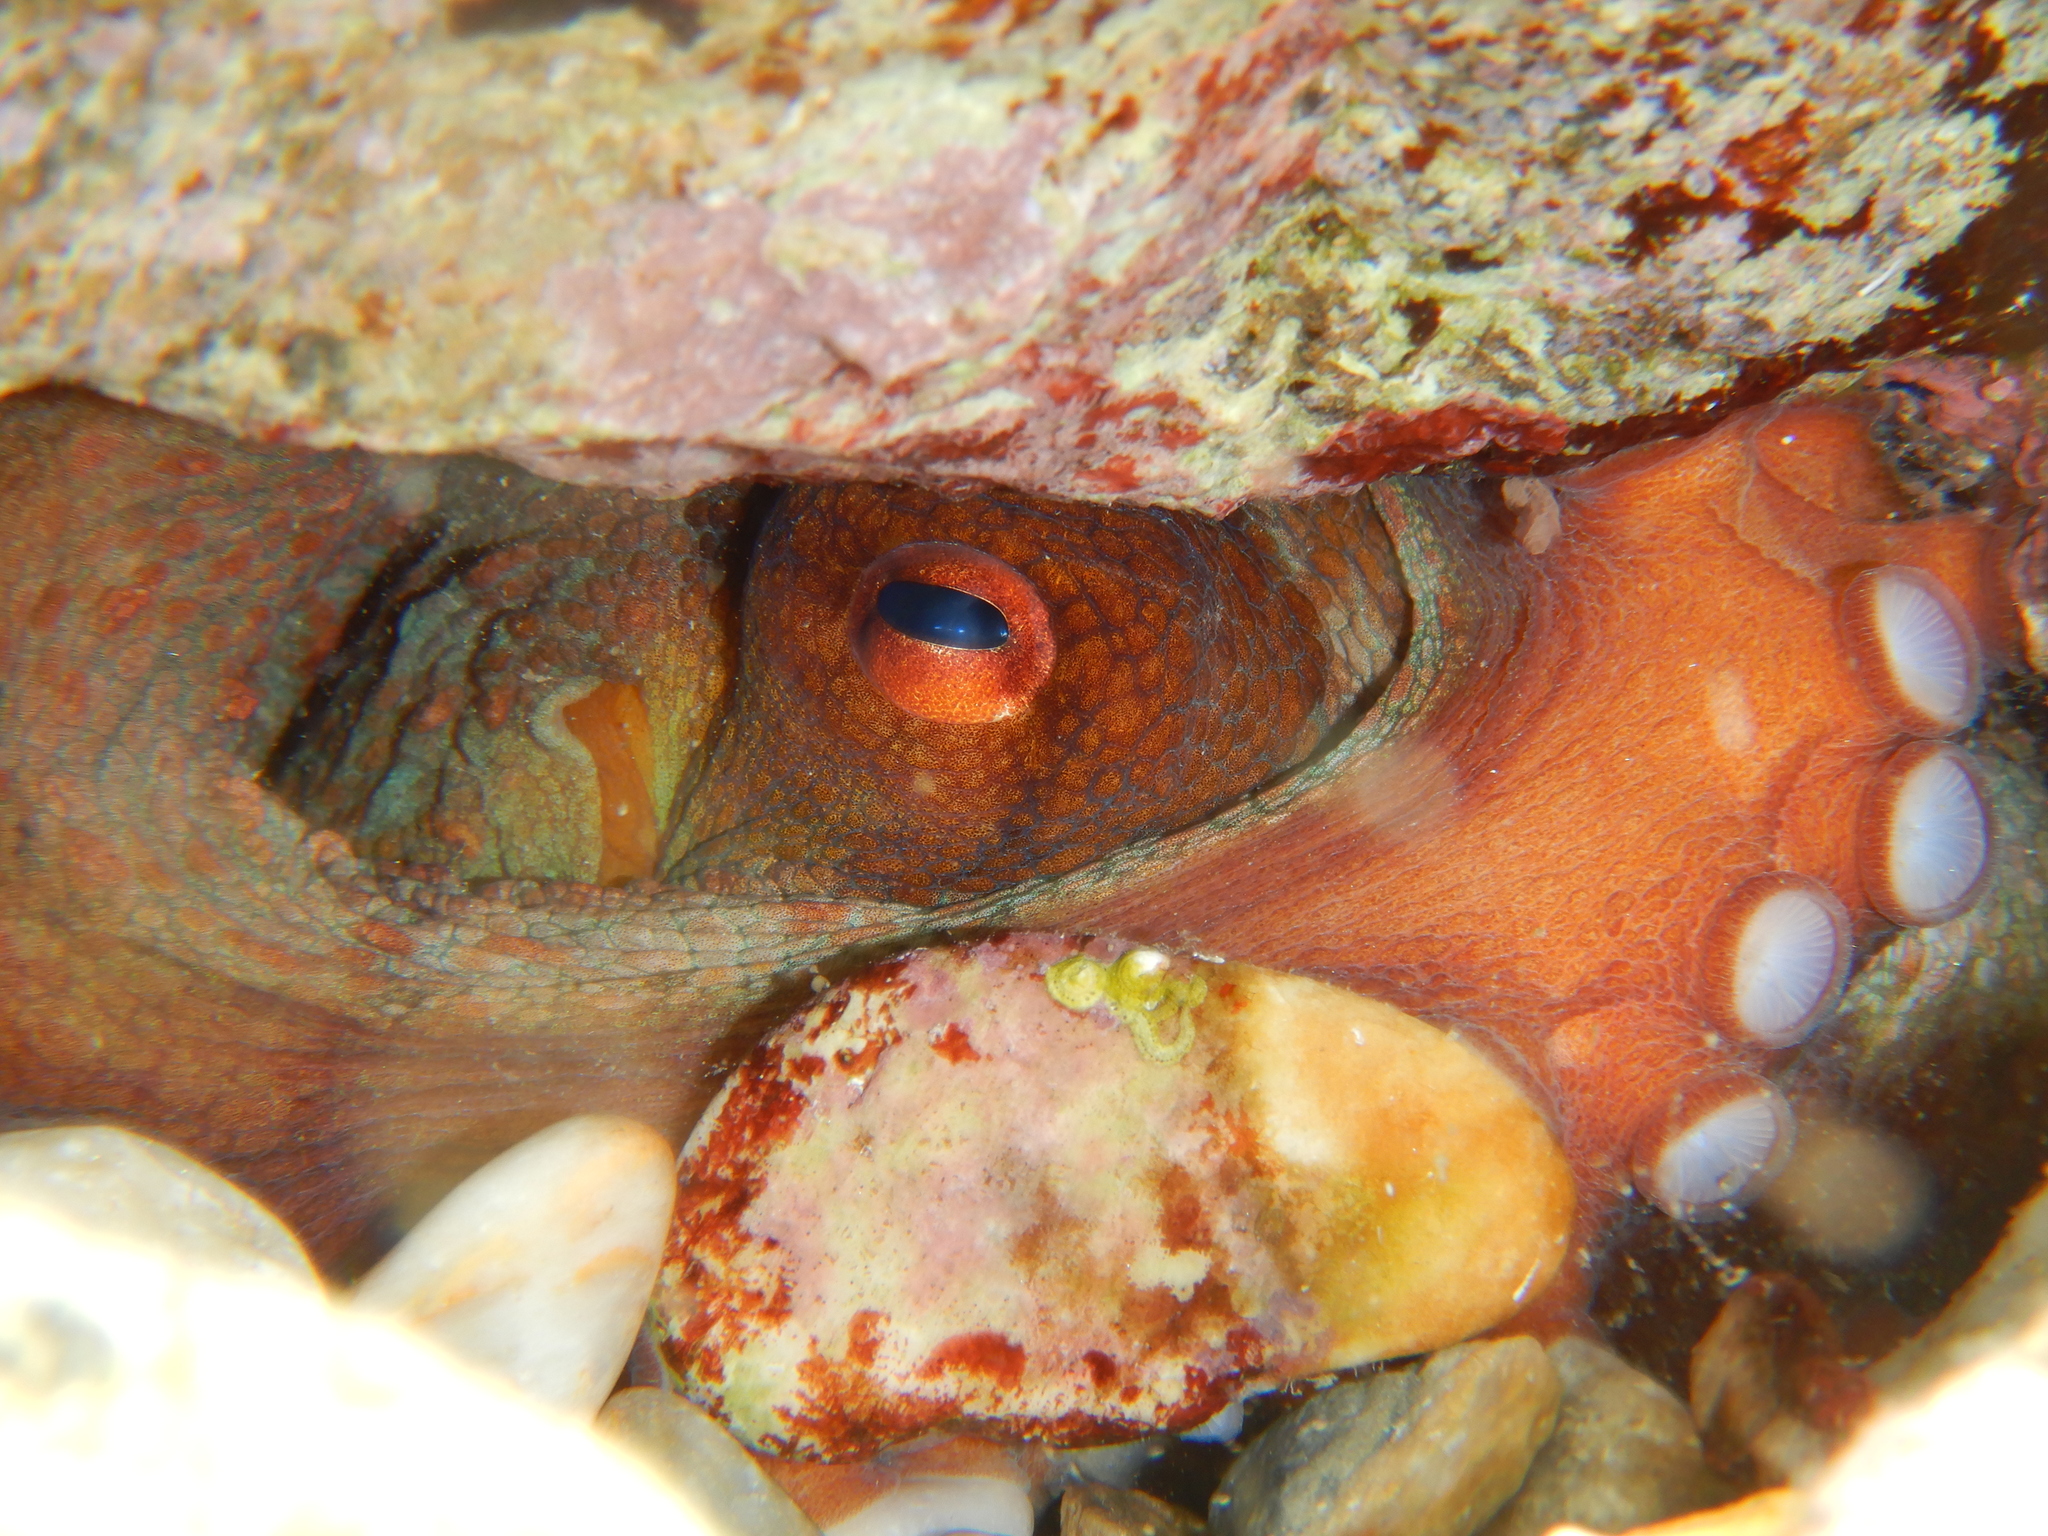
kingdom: Animalia
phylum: Mollusca
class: Cephalopoda
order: Octopoda
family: Octopodidae
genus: Octopus
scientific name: Octopus vulgaris
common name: Common octopus
